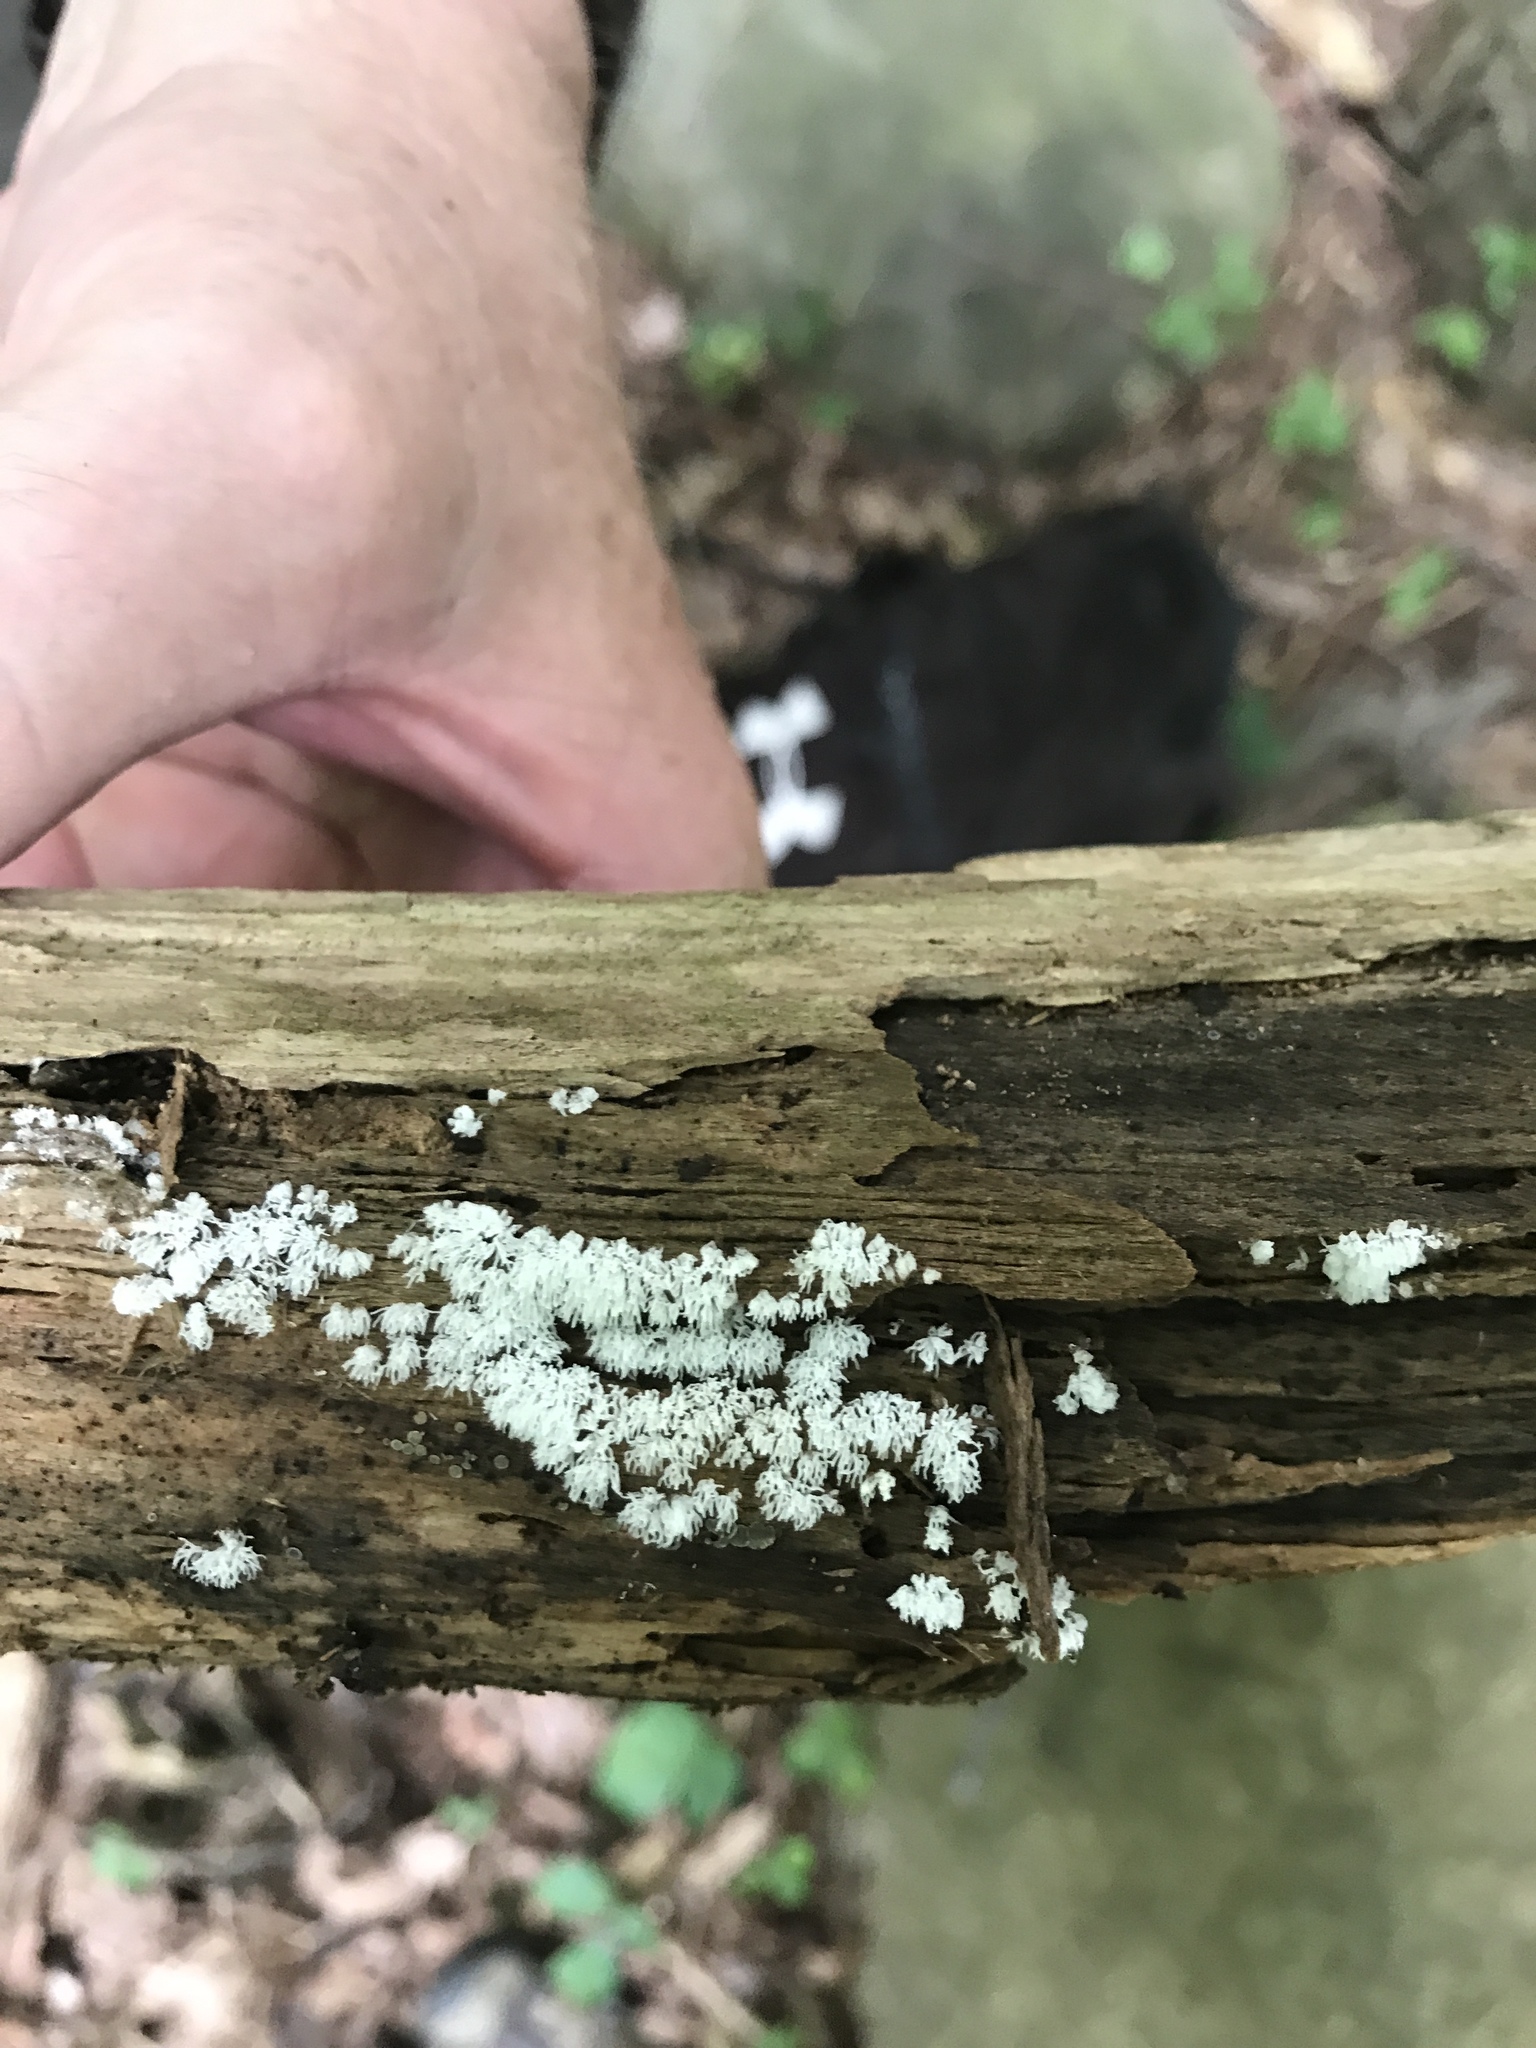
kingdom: Protozoa
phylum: Mycetozoa
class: Protosteliomycetes
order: Ceratiomyxales
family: Ceratiomyxaceae
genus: Ceratiomyxa
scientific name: Ceratiomyxa fruticulosa
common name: Honeycomb coral slime mold
